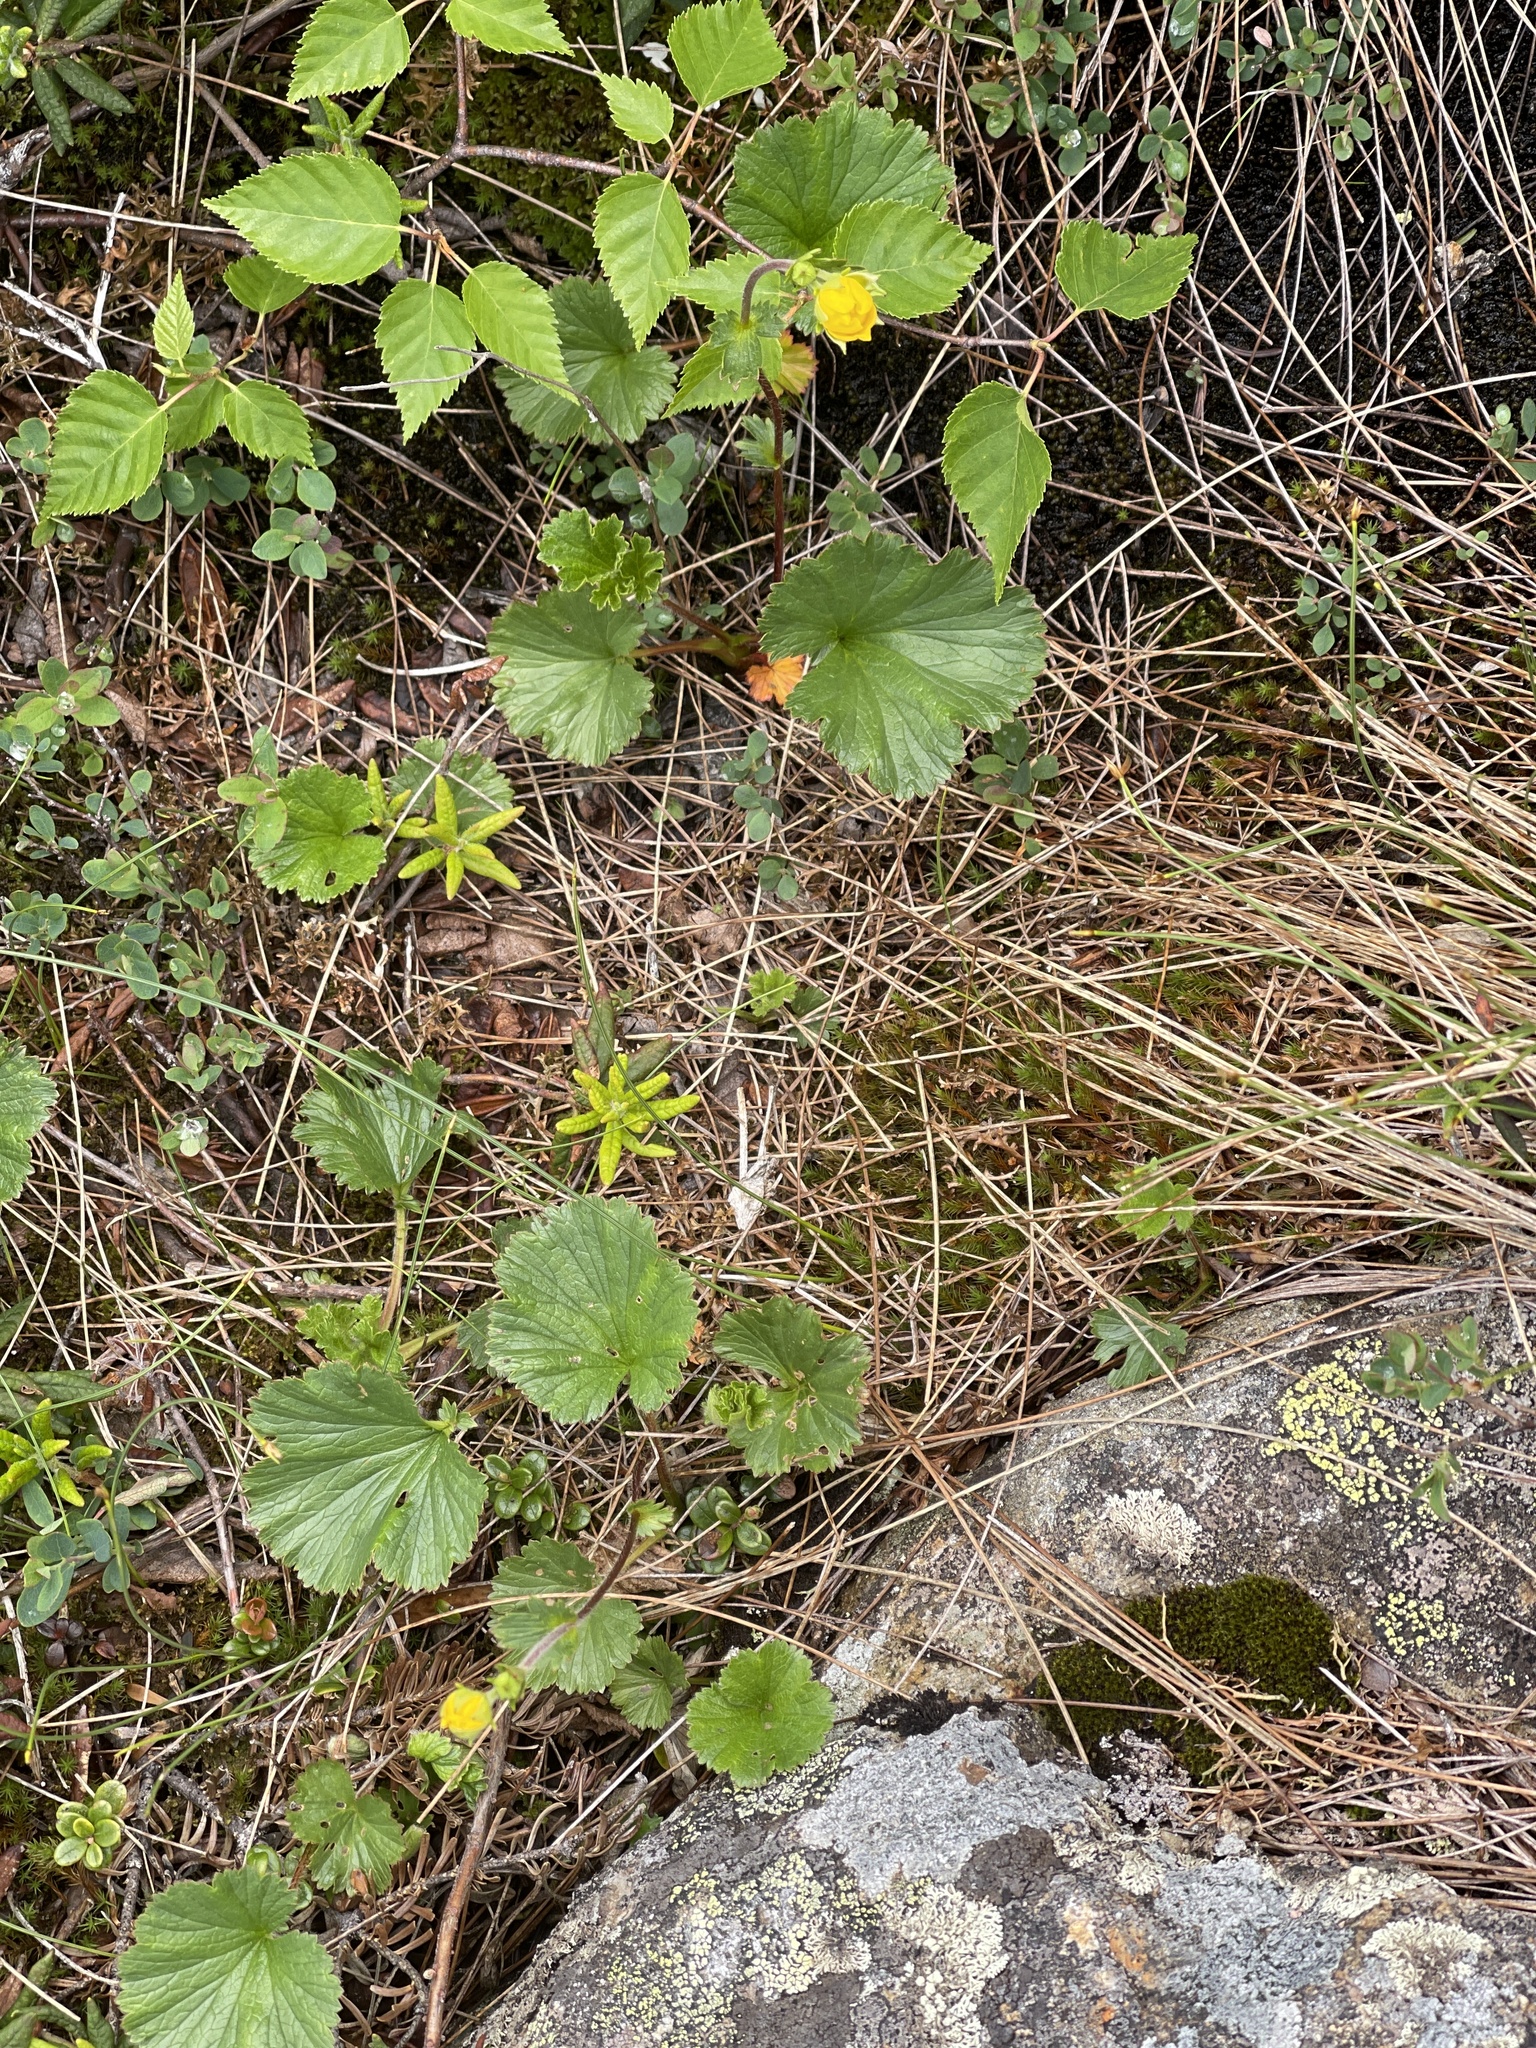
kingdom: Plantae
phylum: Tracheophyta
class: Magnoliopsida
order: Rosales
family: Rosaceae
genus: Geum
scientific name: Geum peckii
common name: Eastern mountain avens
